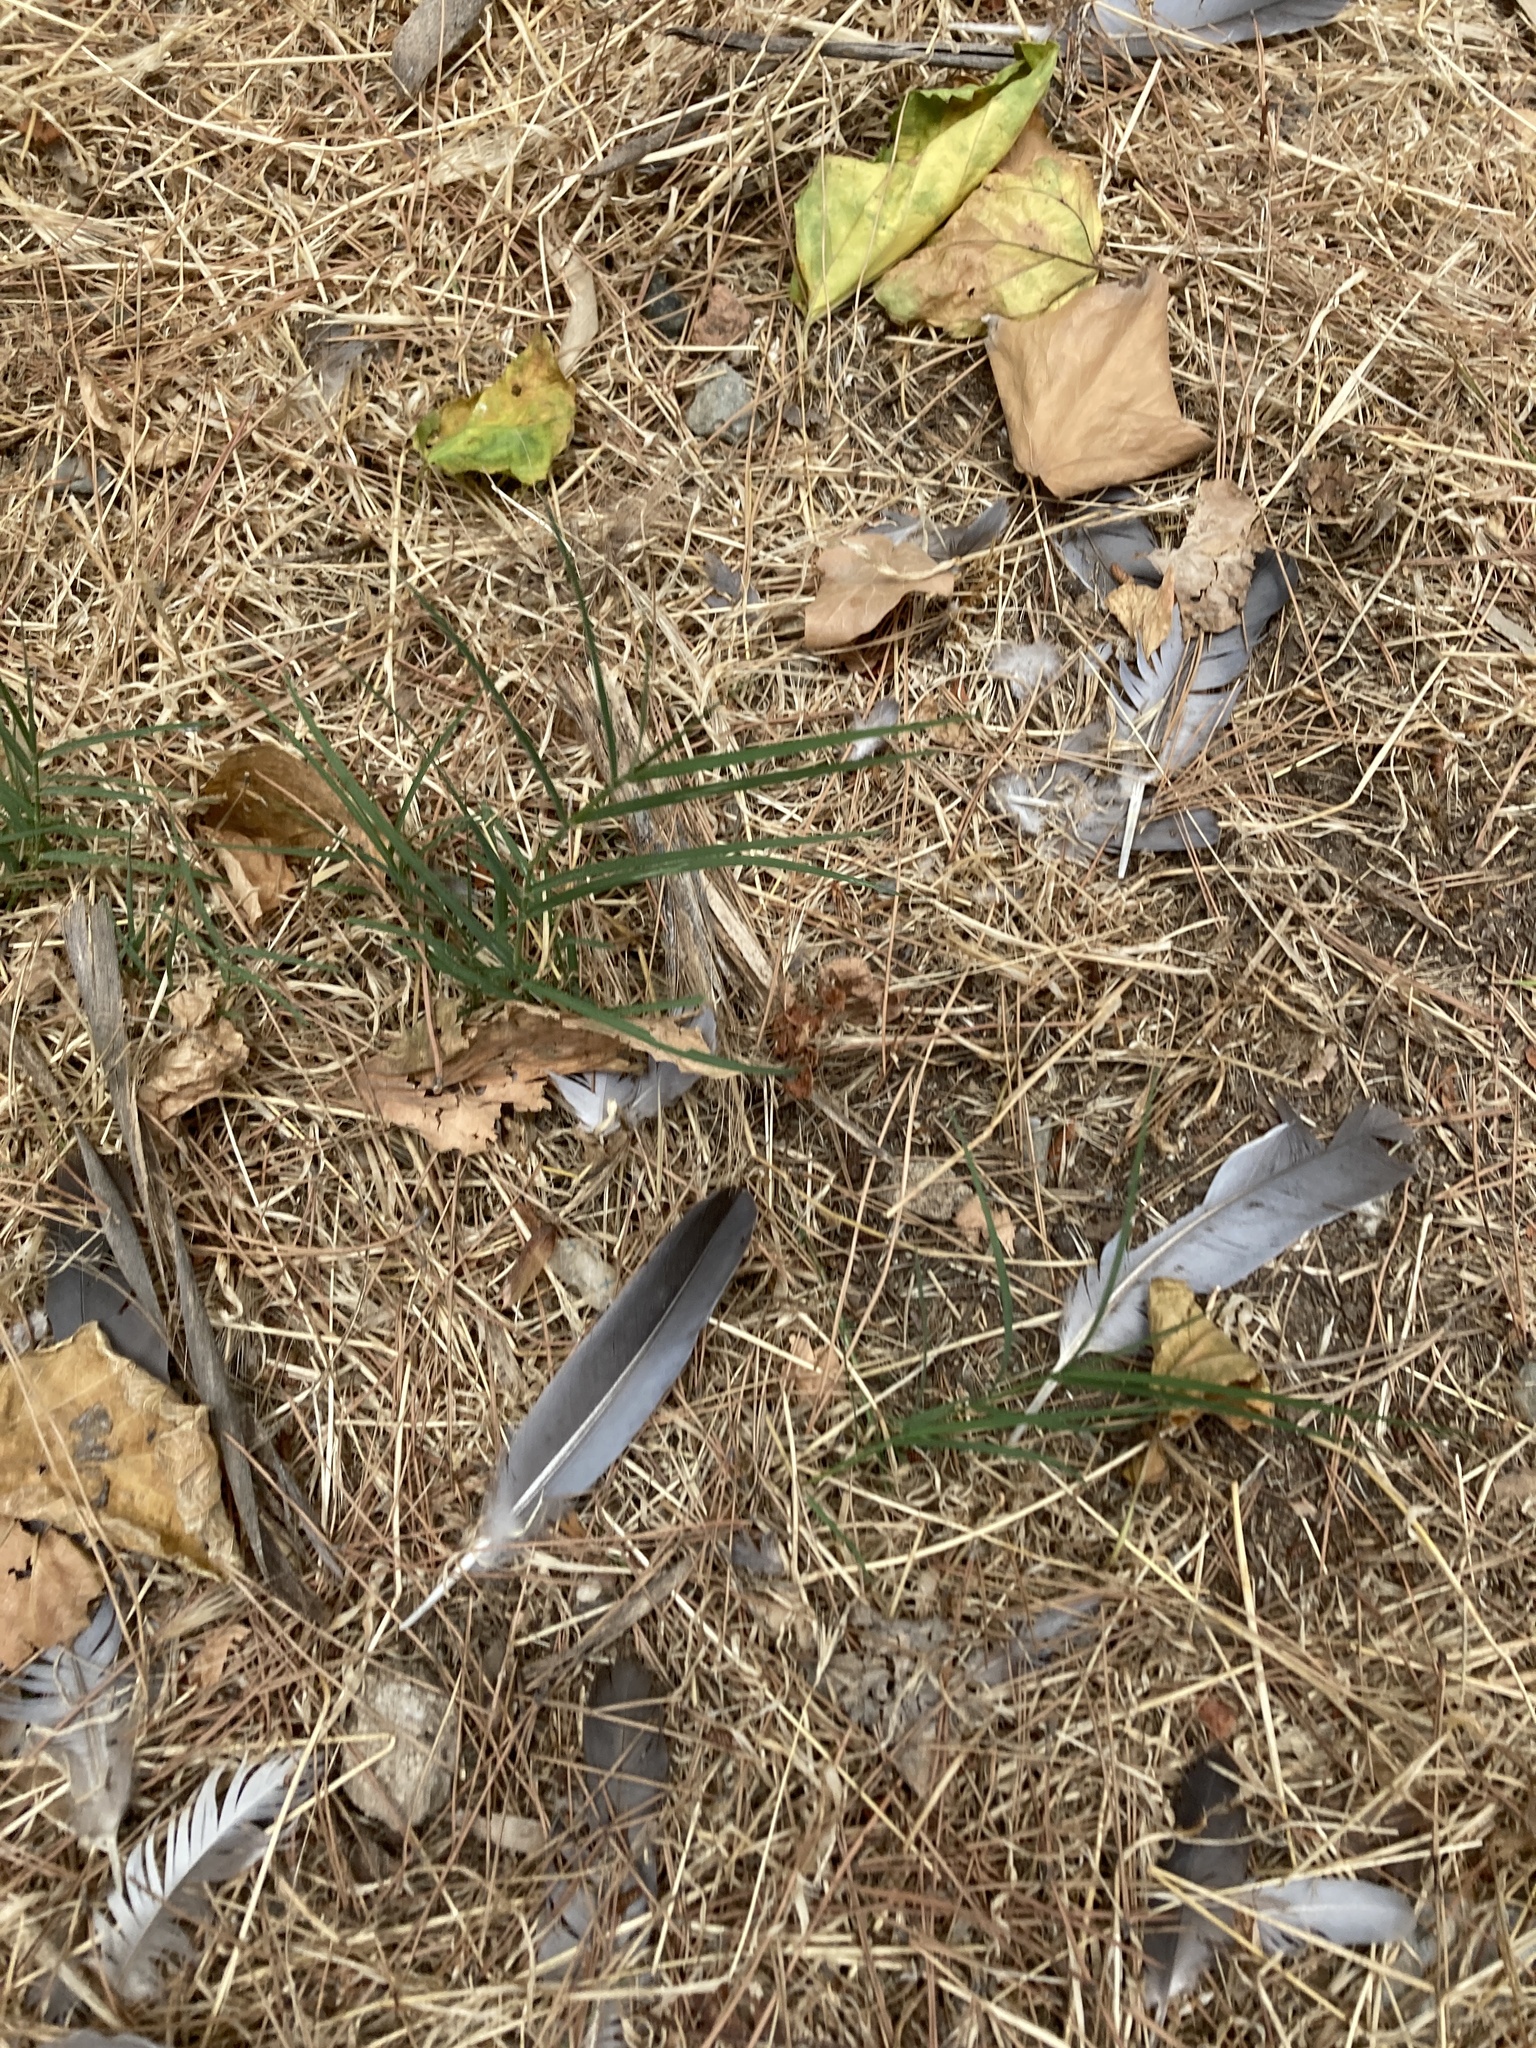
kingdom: Animalia
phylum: Chordata
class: Aves
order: Columbiformes
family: Columbidae
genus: Columba
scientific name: Columba palumbus
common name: Common wood pigeon
